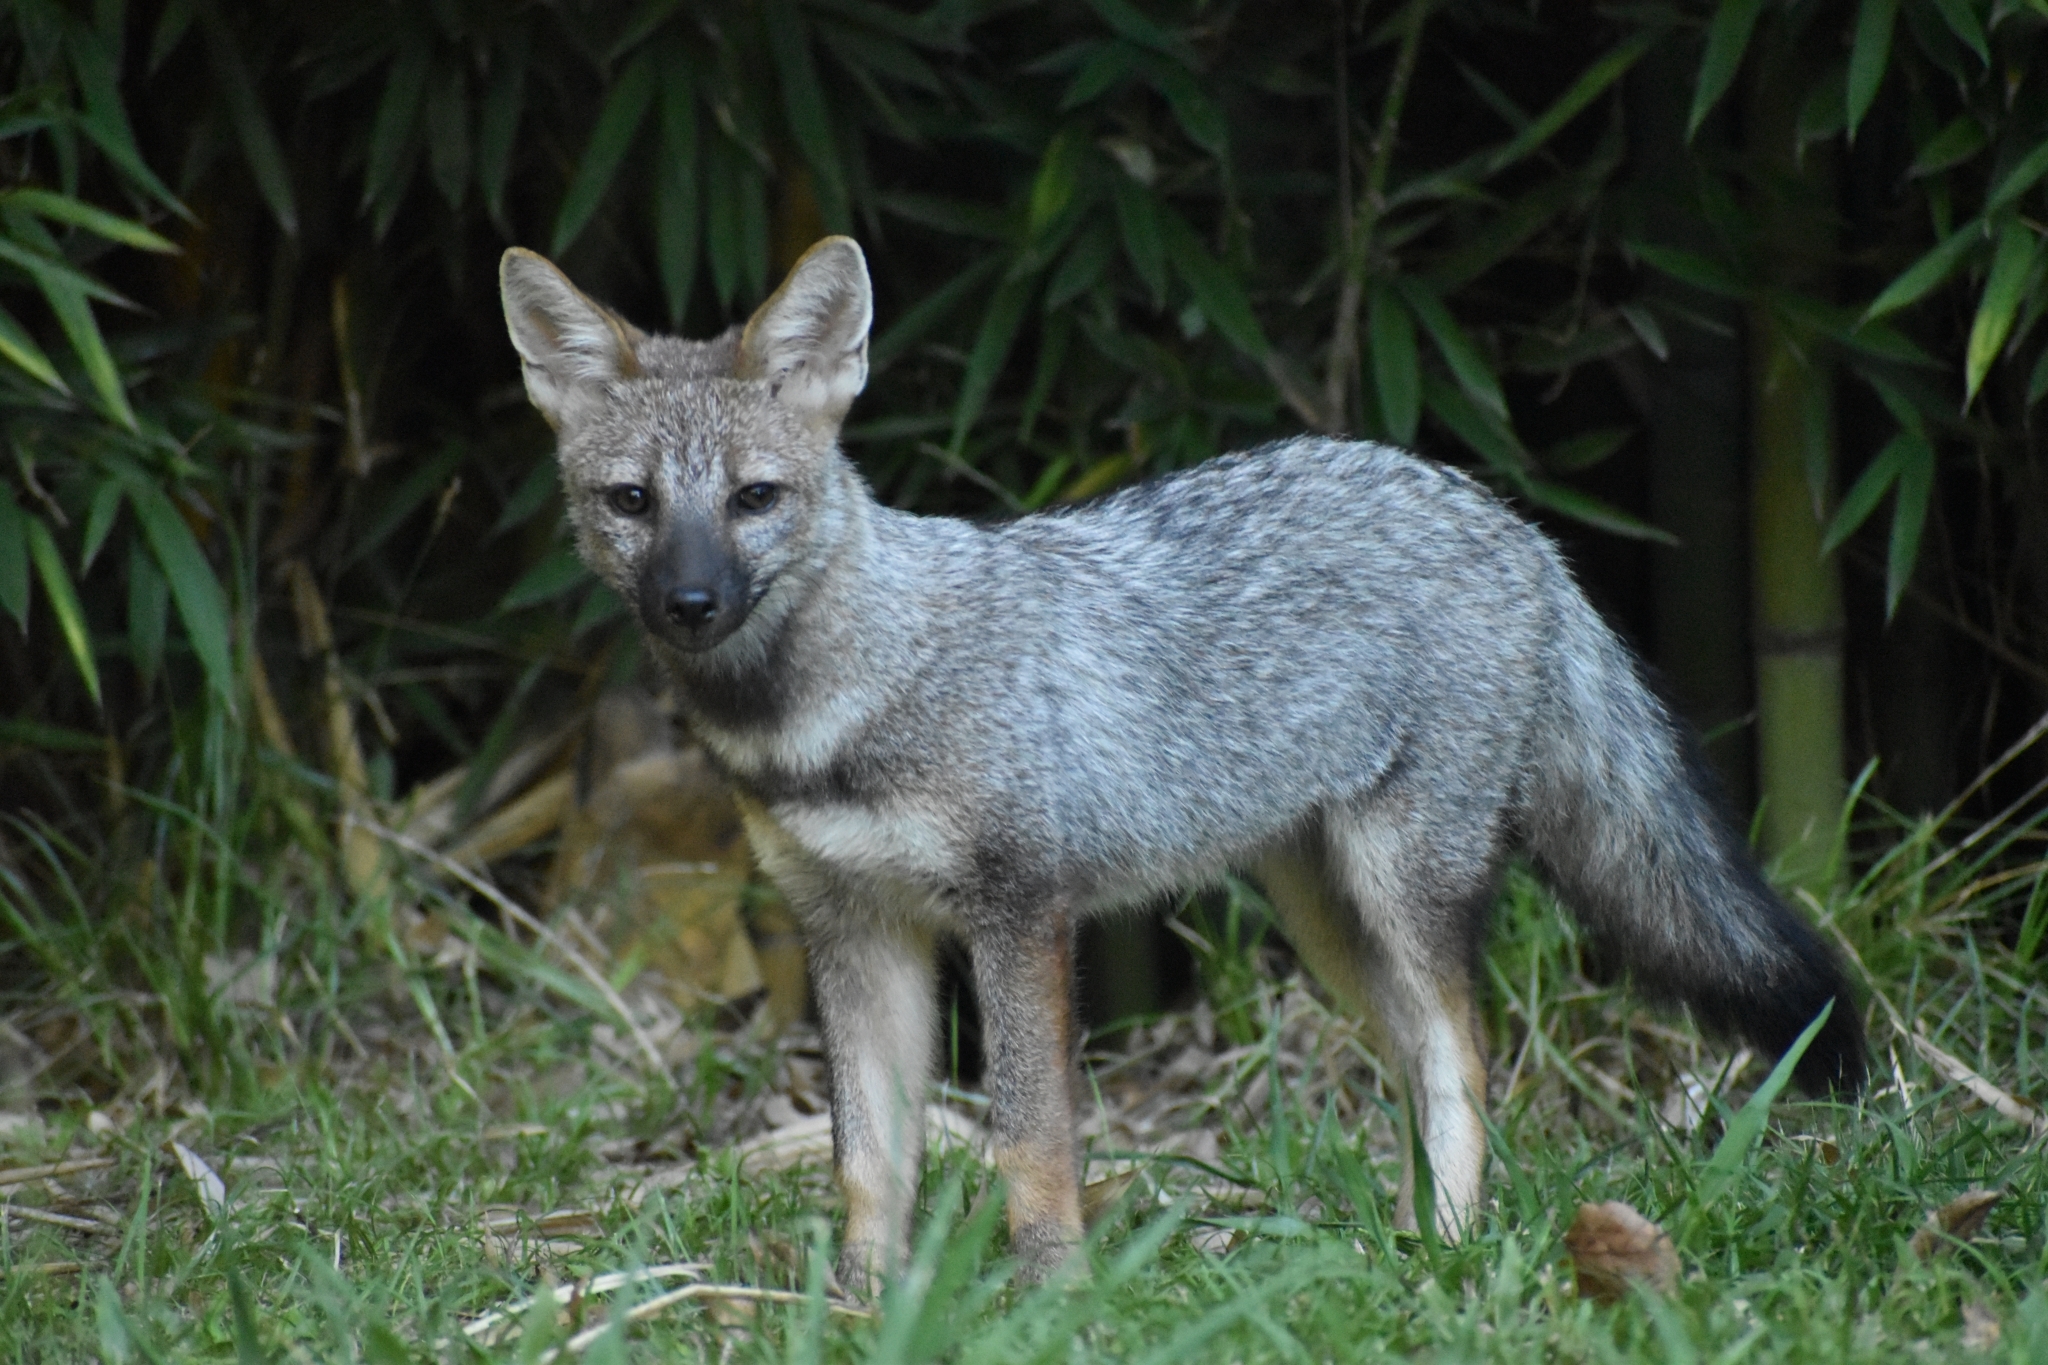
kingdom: Animalia
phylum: Chordata
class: Mammalia
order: Carnivora
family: Canidae
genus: Lycalopex
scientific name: Lycalopex gymnocercus
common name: Pampas fox
